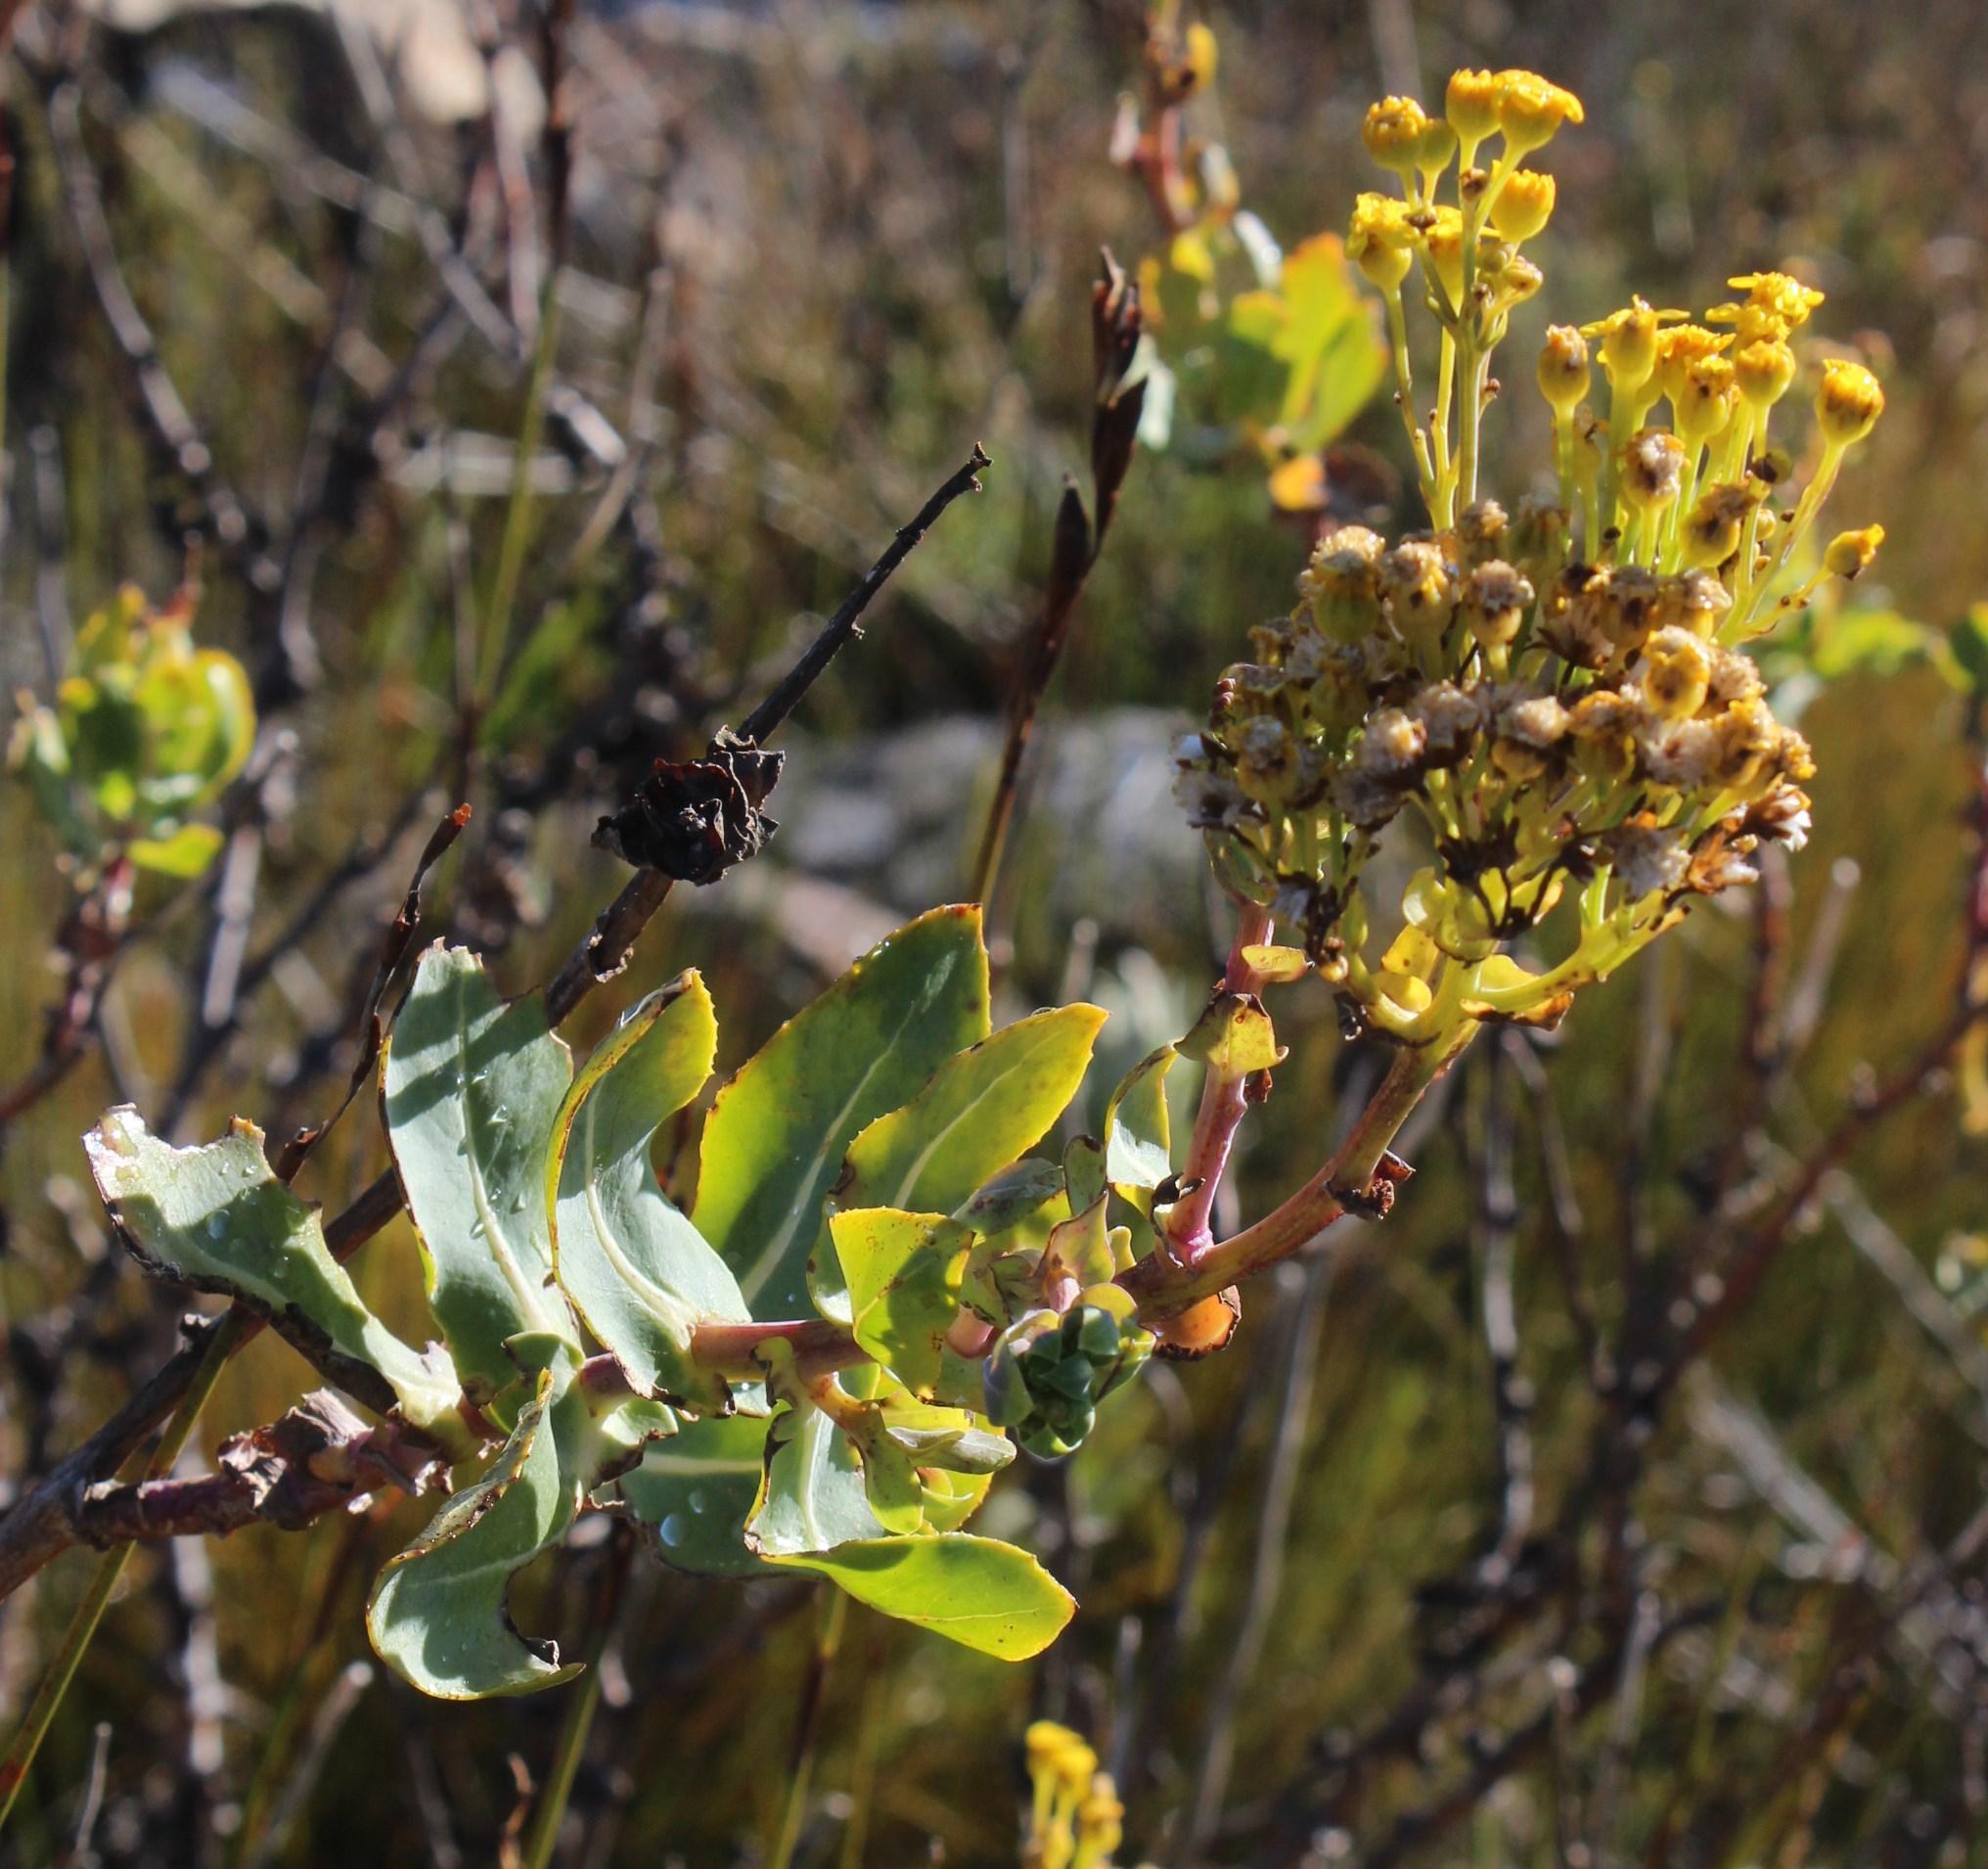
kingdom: Plantae
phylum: Tracheophyta
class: Magnoliopsida
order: Asterales
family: Asteraceae
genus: Othonna
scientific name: Othonna parviflora
